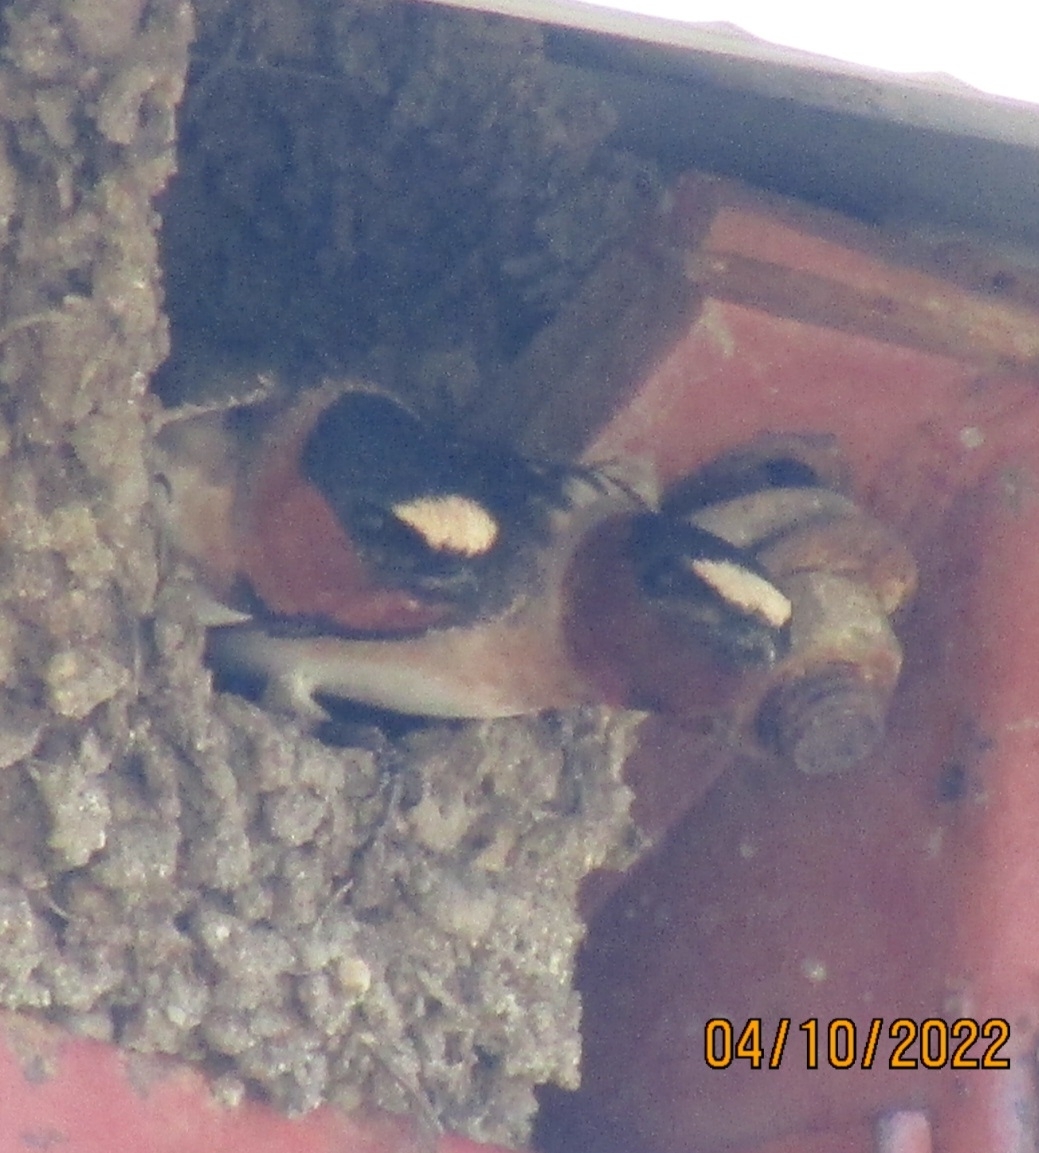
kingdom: Animalia
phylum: Chordata
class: Aves
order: Passeriformes
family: Hirundinidae
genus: Petrochelidon
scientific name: Petrochelidon pyrrhonota
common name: American cliff swallow
